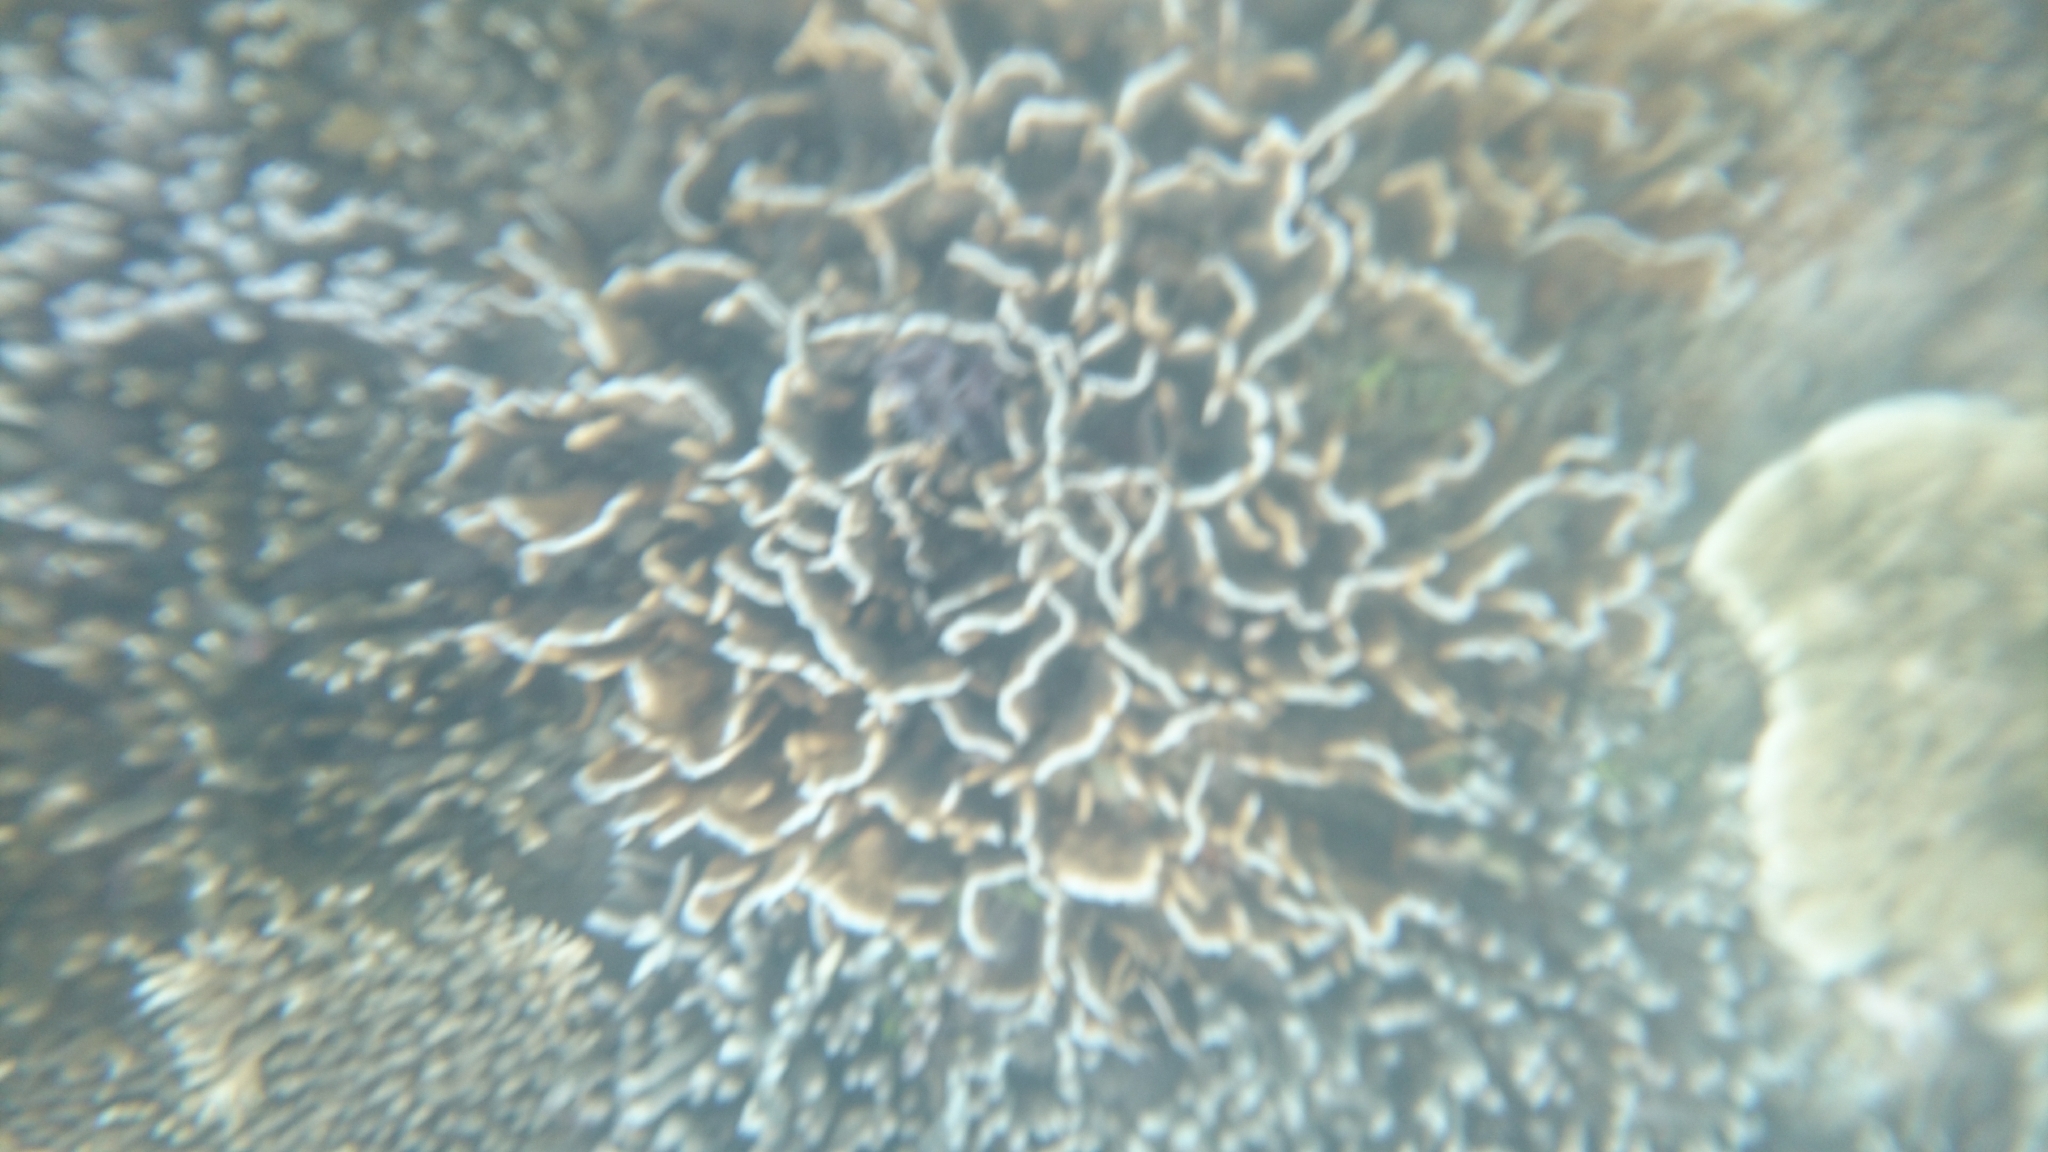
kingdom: Animalia
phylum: Cnidaria
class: Anthozoa
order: Scleractinia
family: Agariciidae
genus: Pavona
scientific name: Pavona decussata
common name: Leaf coral
